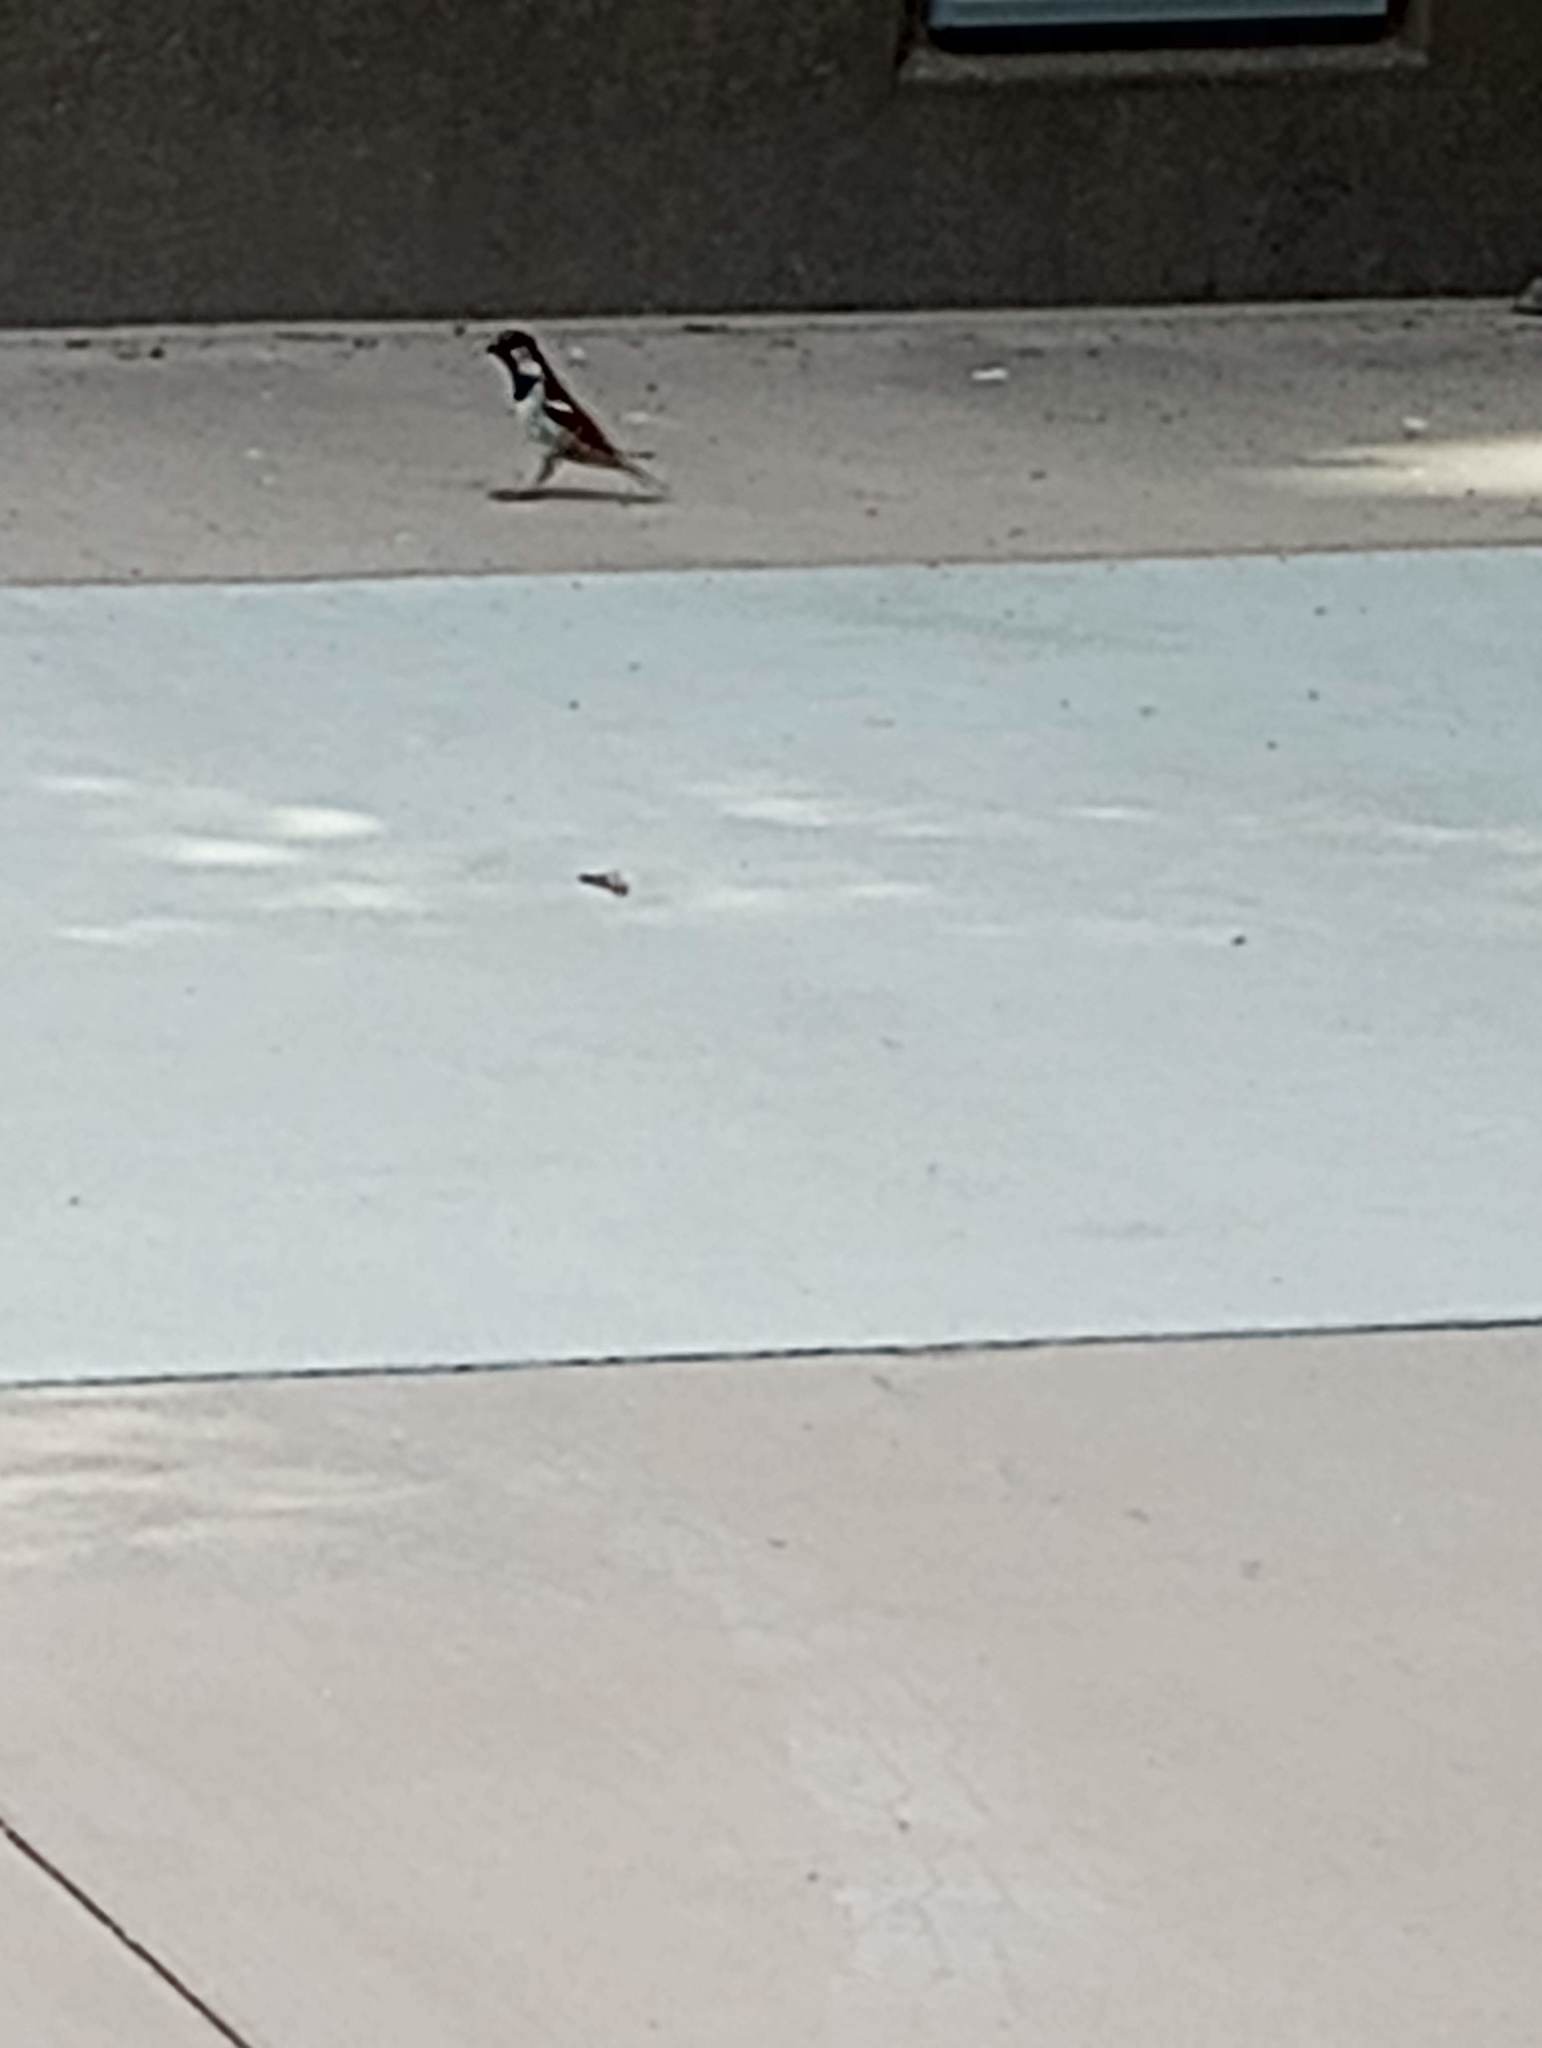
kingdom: Animalia
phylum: Chordata
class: Aves
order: Passeriformes
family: Passeridae
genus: Passer
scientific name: Passer domesticus
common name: House sparrow
